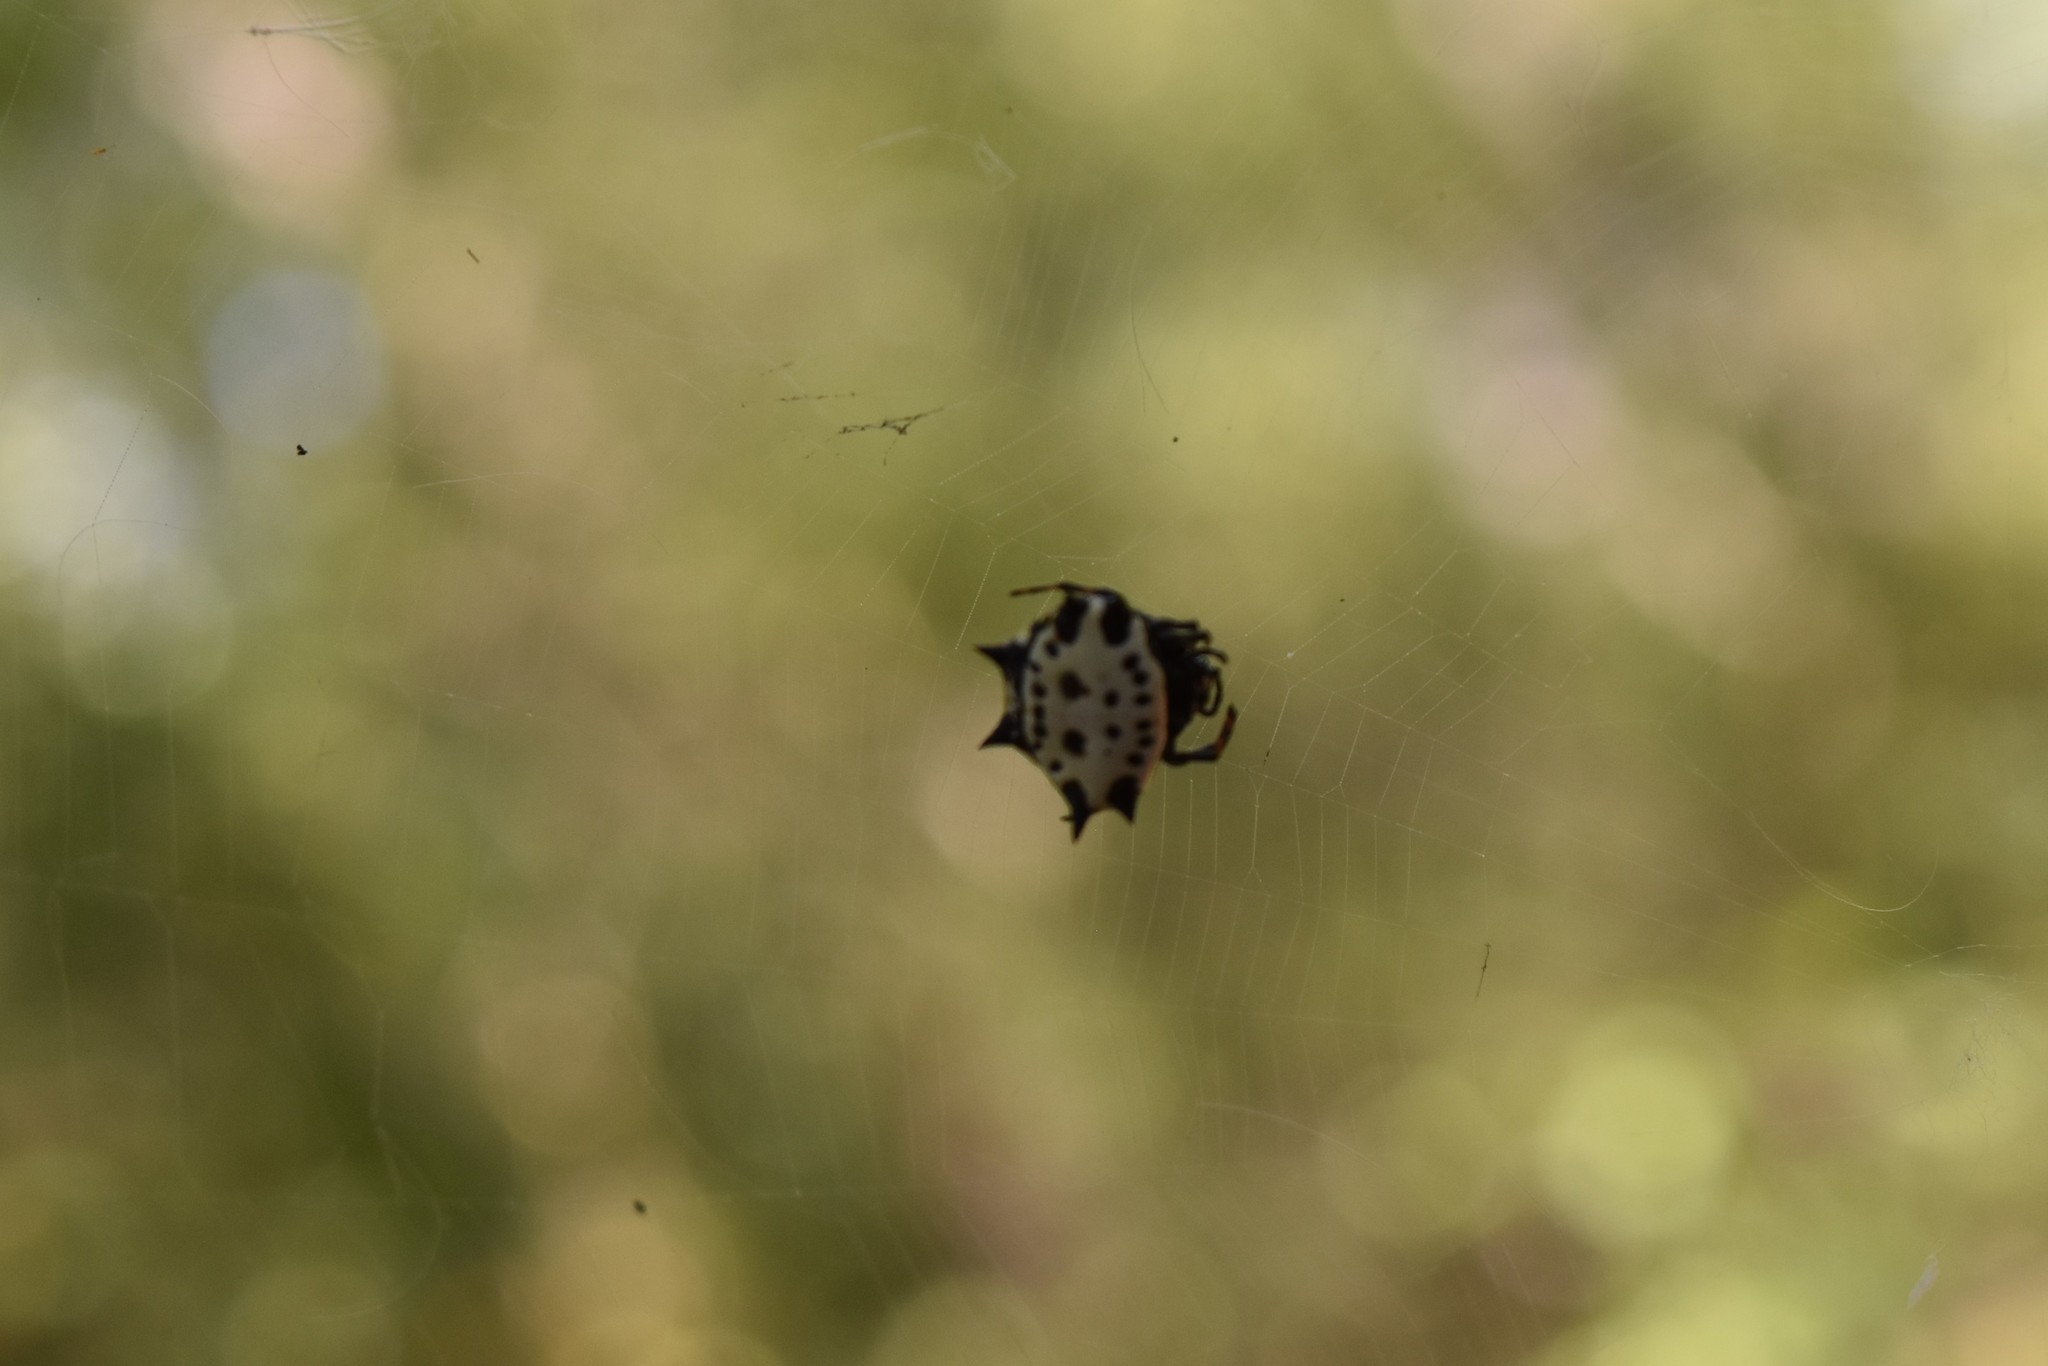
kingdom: Animalia
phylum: Arthropoda
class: Arachnida
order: Araneae
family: Araneidae
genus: Gasteracantha
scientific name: Gasteracantha cancriformis
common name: Orb weavers
